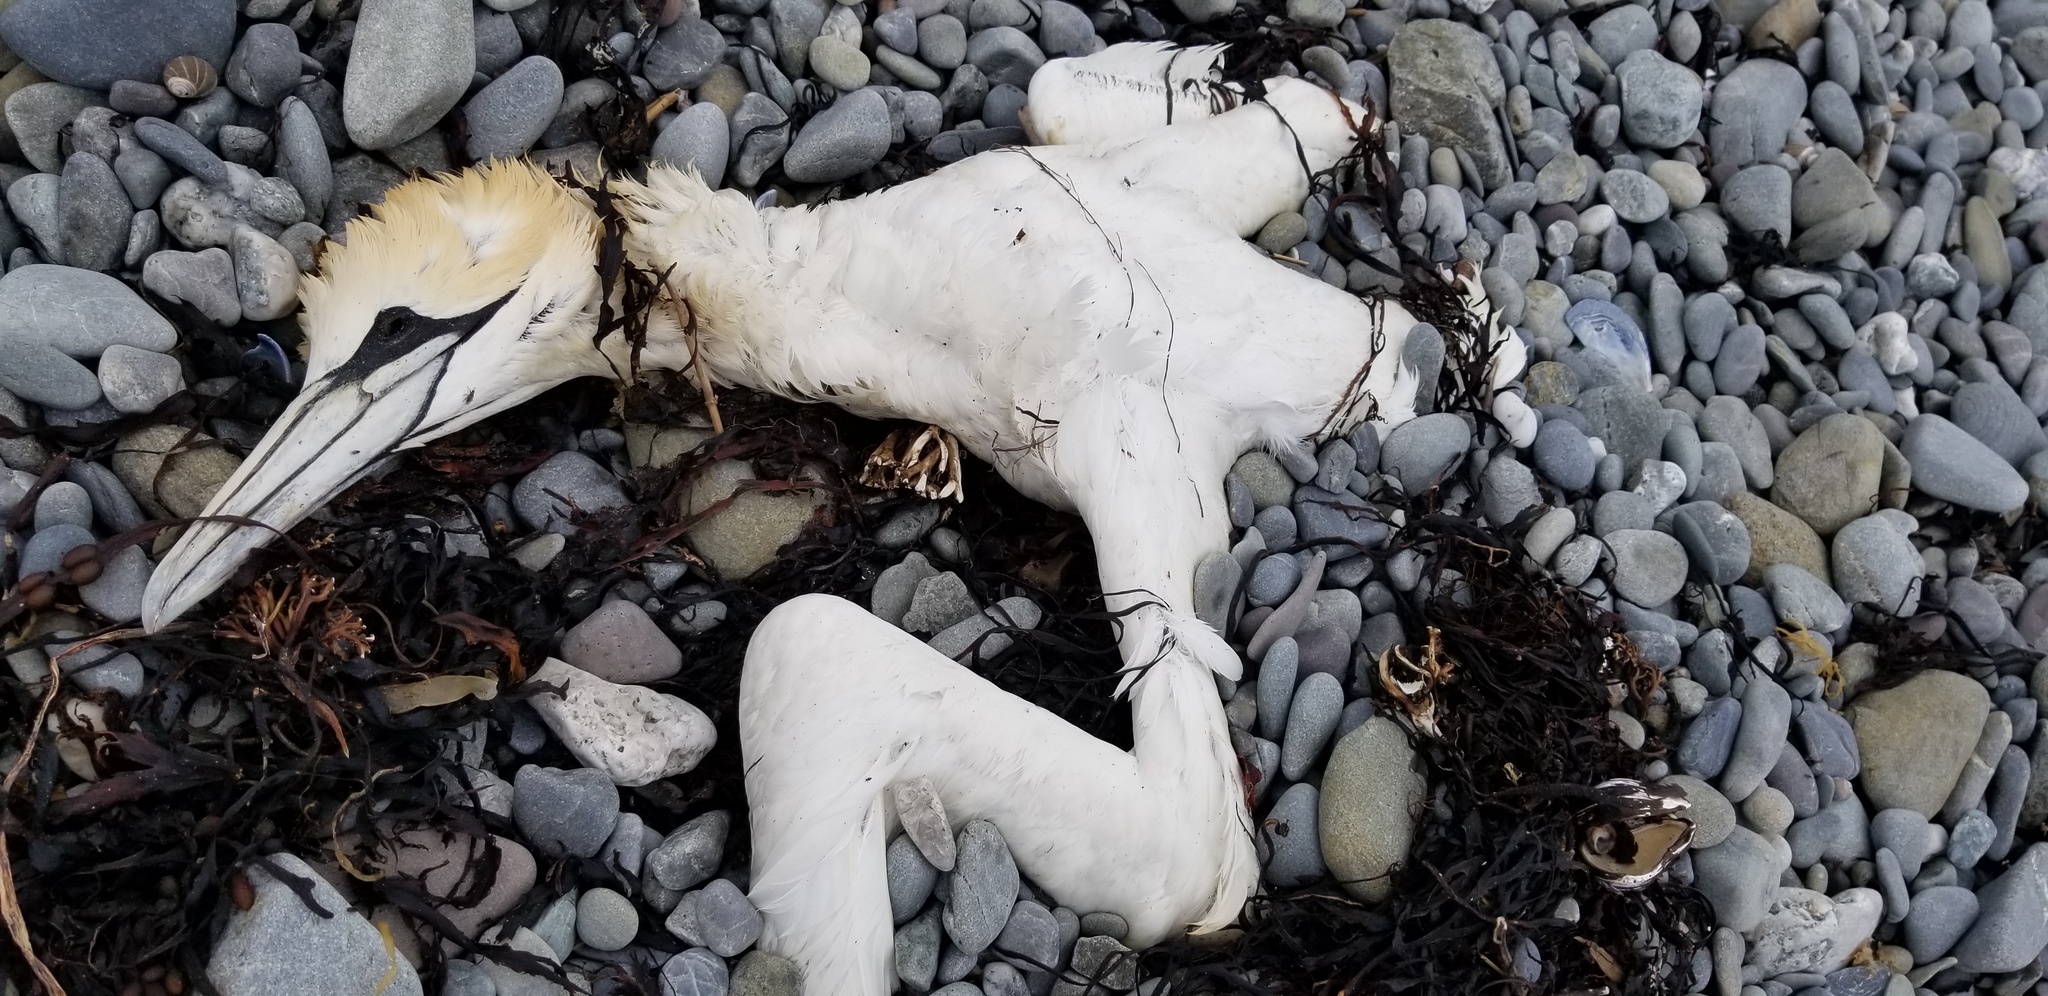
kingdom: Animalia
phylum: Chordata
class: Aves
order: Suliformes
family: Sulidae
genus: Morus
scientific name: Morus bassanus
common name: Northern gannet
